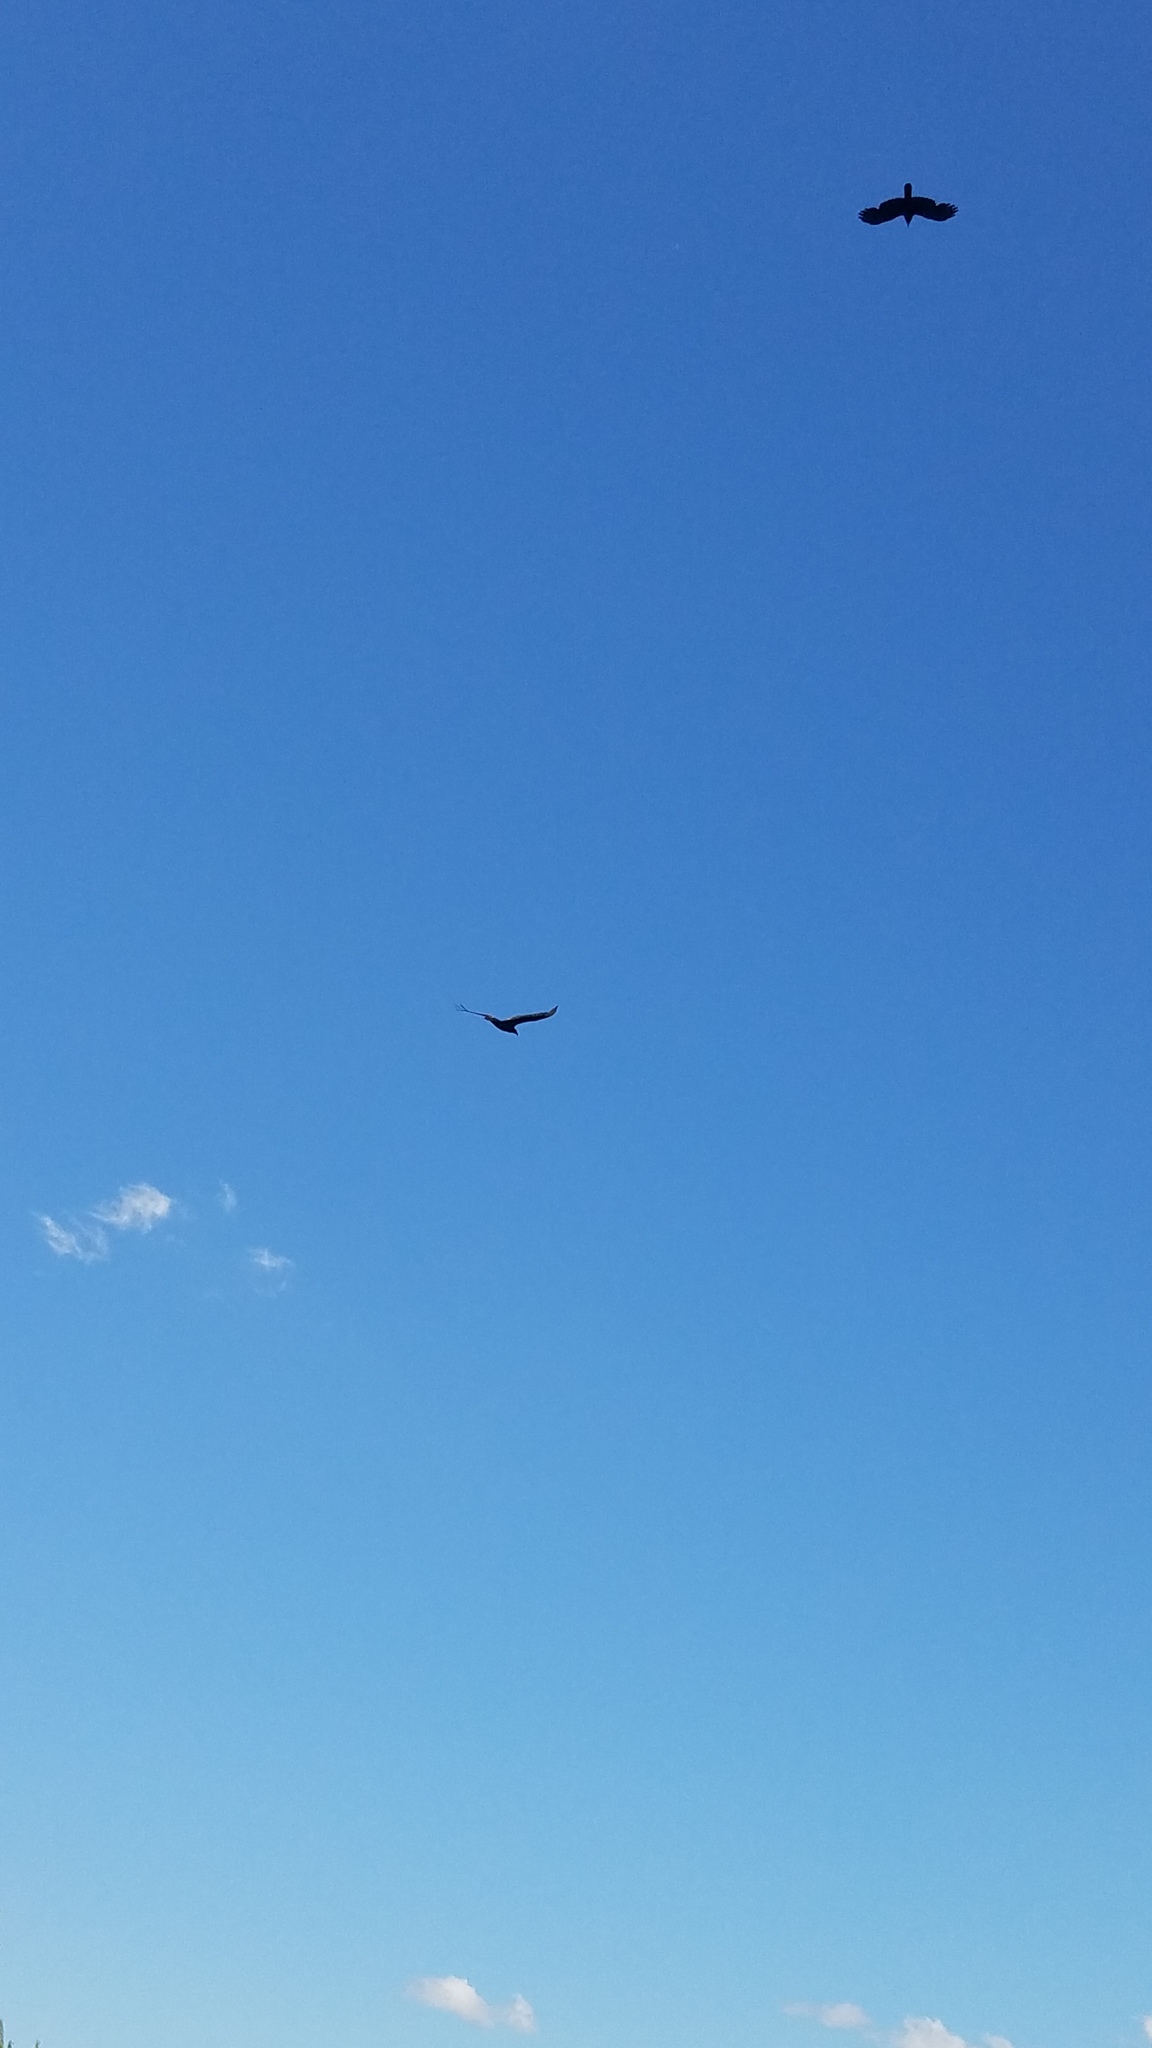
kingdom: Animalia
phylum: Chordata
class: Aves
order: Accipitriformes
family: Cathartidae
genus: Cathartes
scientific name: Cathartes aura
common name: Turkey vulture
